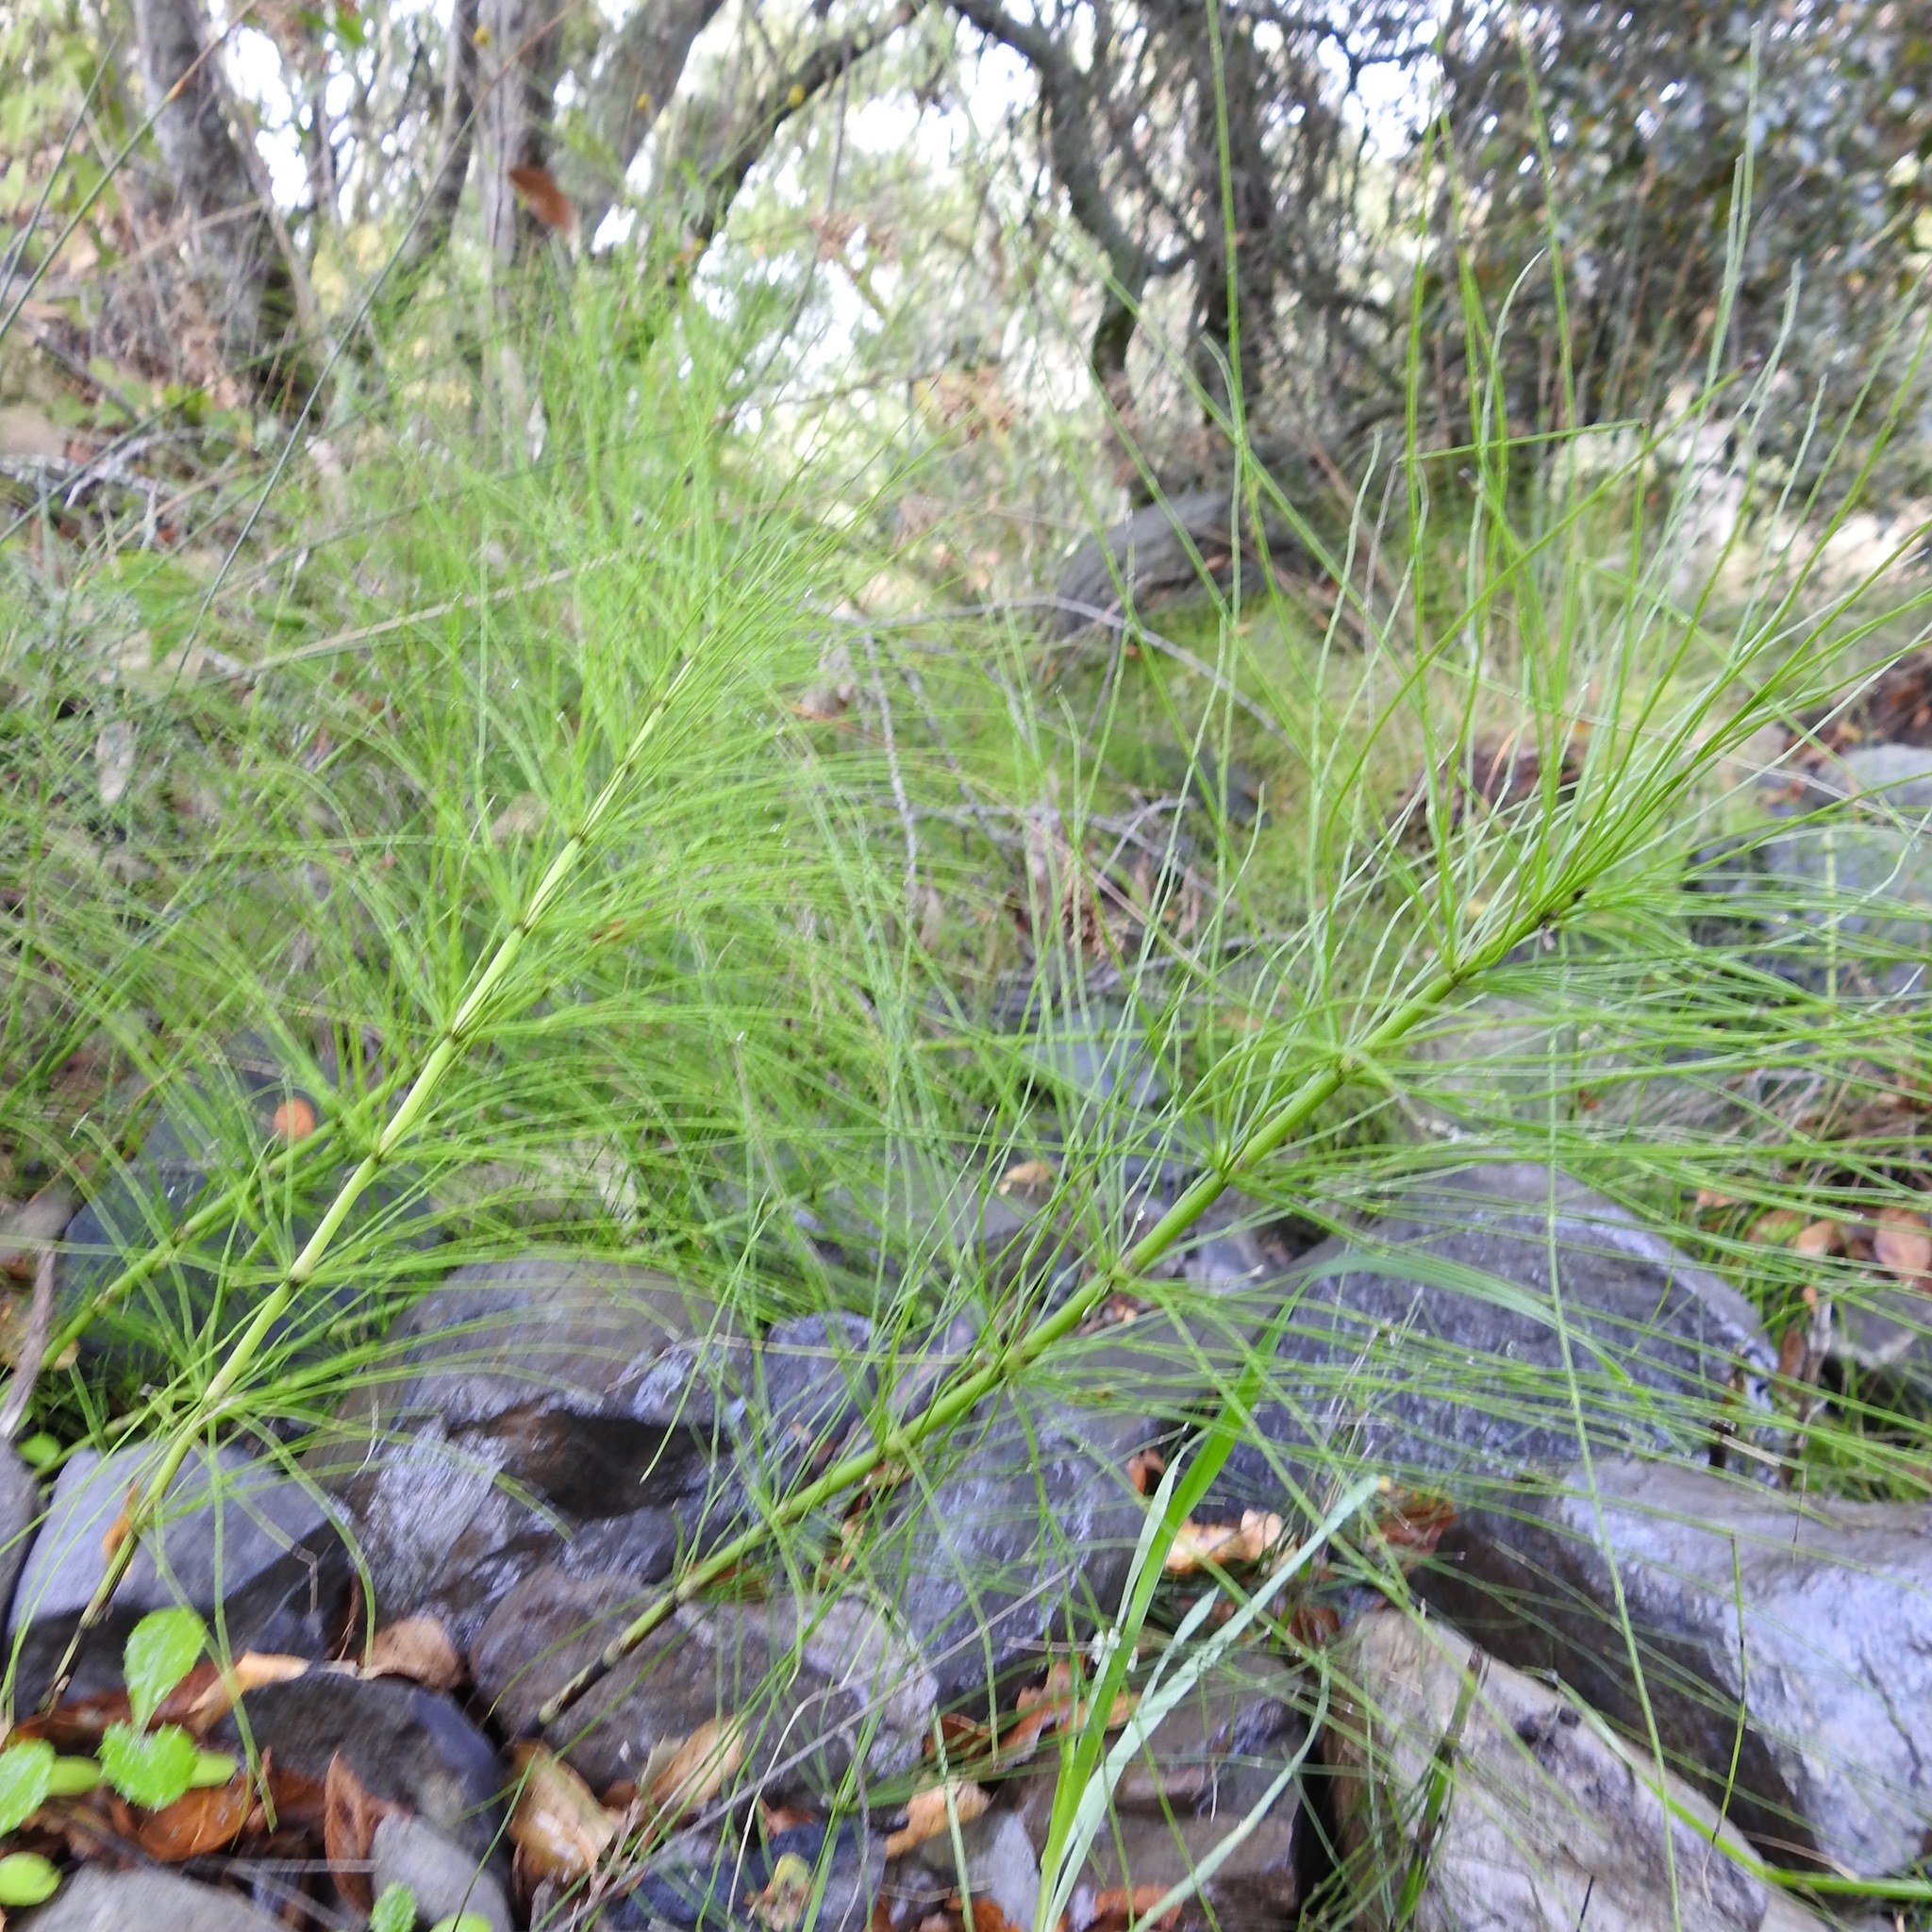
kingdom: Plantae
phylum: Tracheophyta
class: Polypodiopsida
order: Equisetales
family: Equisetaceae
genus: Equisetum
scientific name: Equisetum telmateia
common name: Great horsetail
